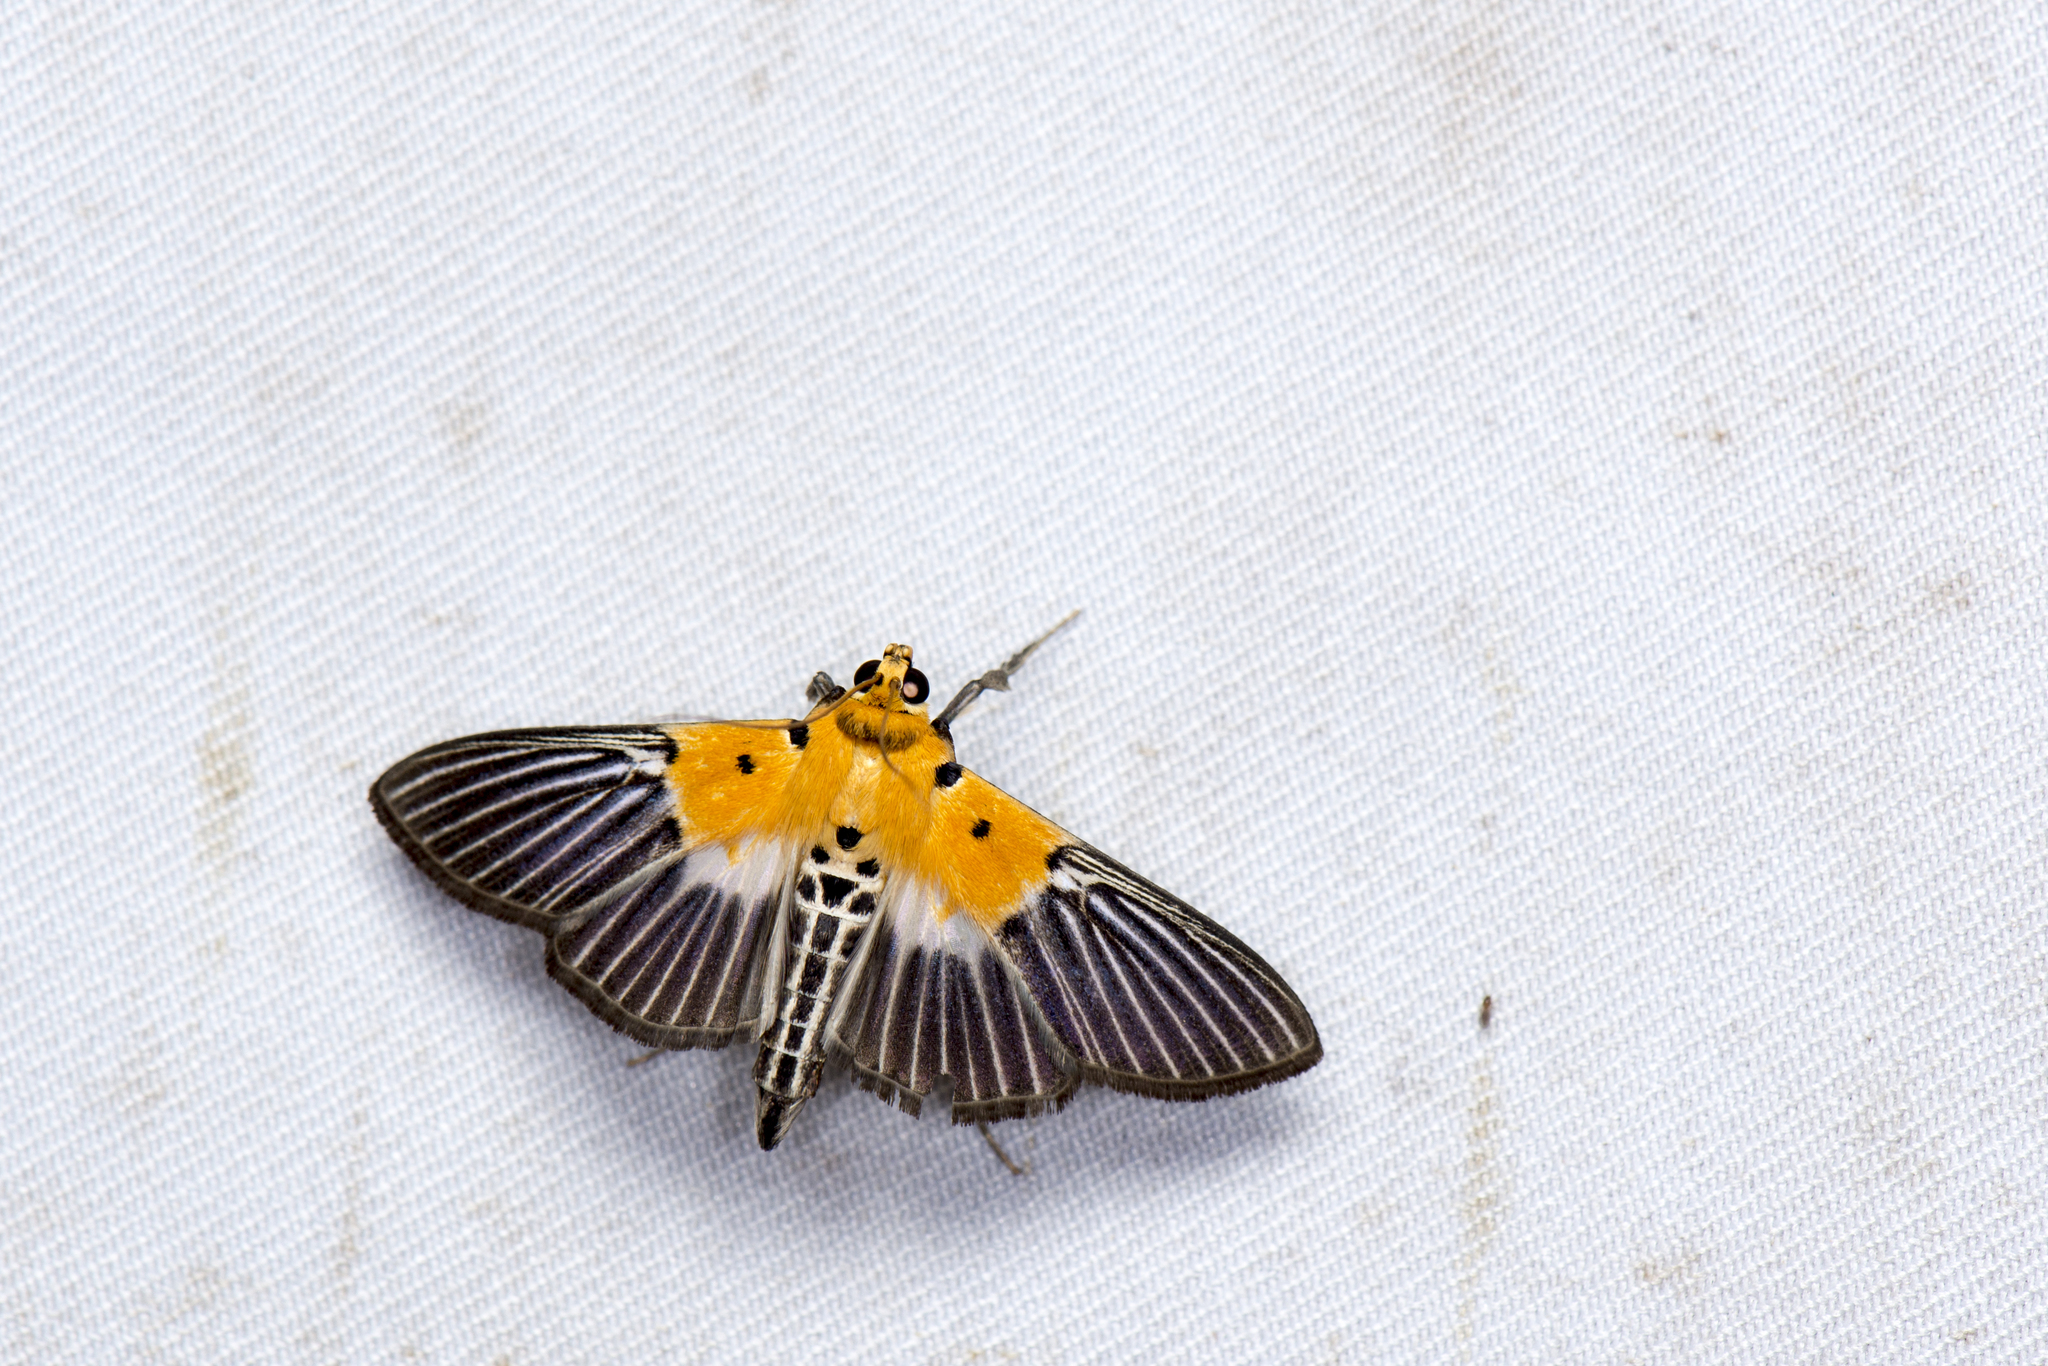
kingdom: Animalia
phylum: Arthropoda
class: Insecta
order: Lepidoptera
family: Crambidae
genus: Nevrina
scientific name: Nevrina procopia
